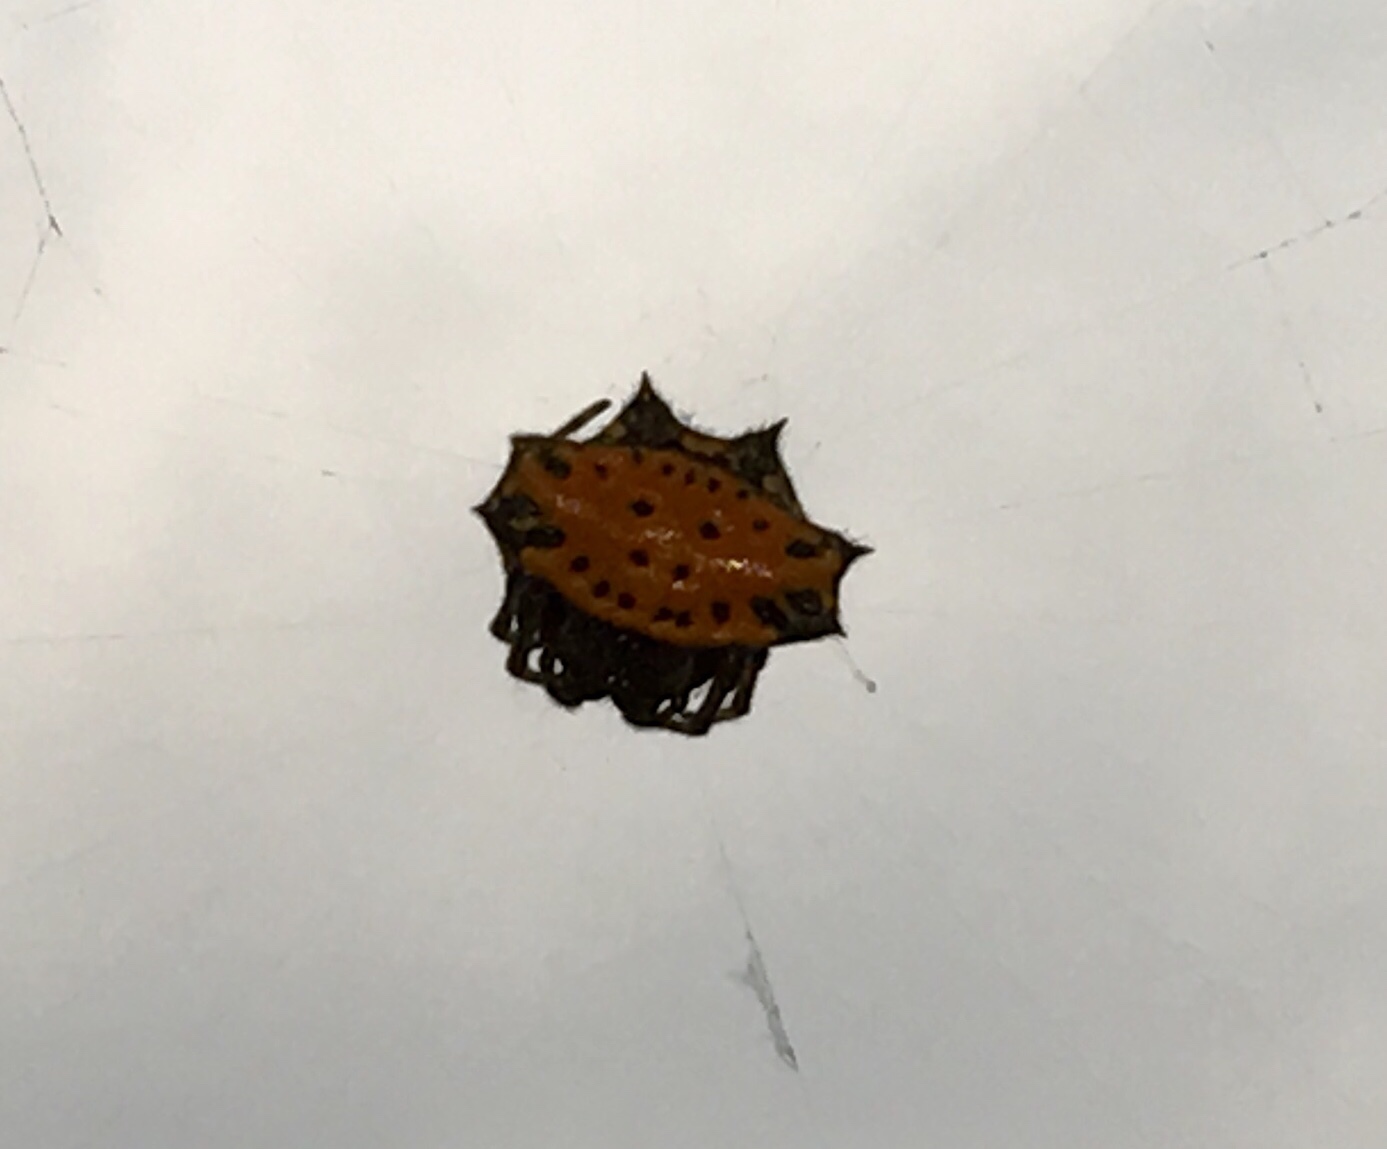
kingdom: Animalia
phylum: Arthropoda
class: Arachnida
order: Araneae
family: Araneidae
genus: Gasteracantha
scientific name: Gasteracantha cancriformis
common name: Orb weavers
